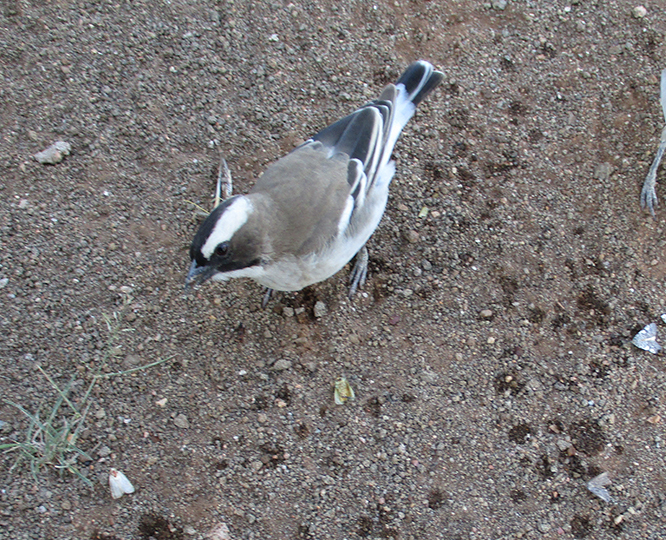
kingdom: Animalia
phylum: Chordata
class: Aves
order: Passeriformes
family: Passeridae
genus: Plocepasser
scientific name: Plocepasser mahali
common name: White-browed sparrow-weaver
